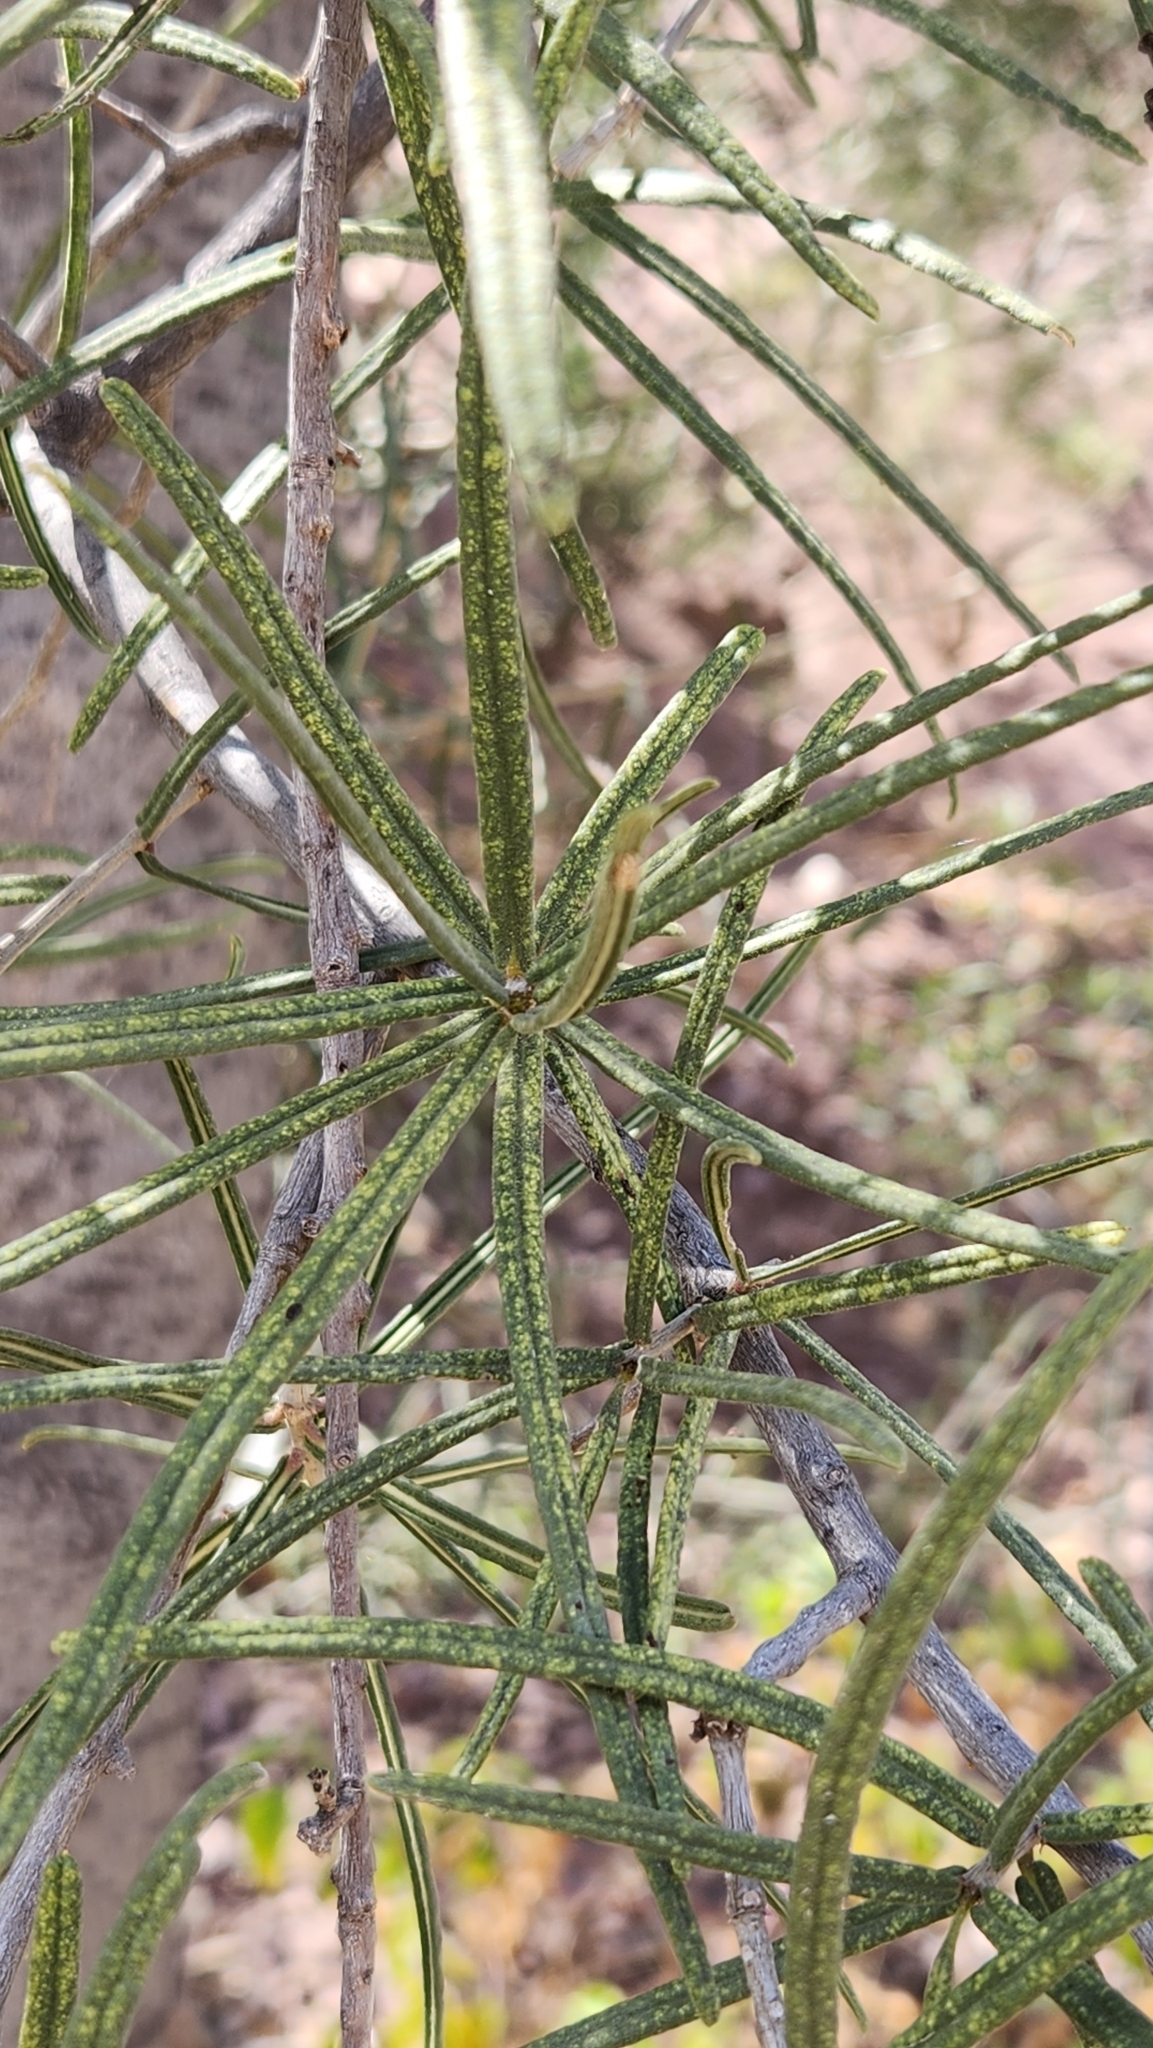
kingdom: Plantae
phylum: Tracheophyta
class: Magnoliopsida
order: Brassicales
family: Stixaceae
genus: Forchhammeria
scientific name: Forchhammeria watsonii
